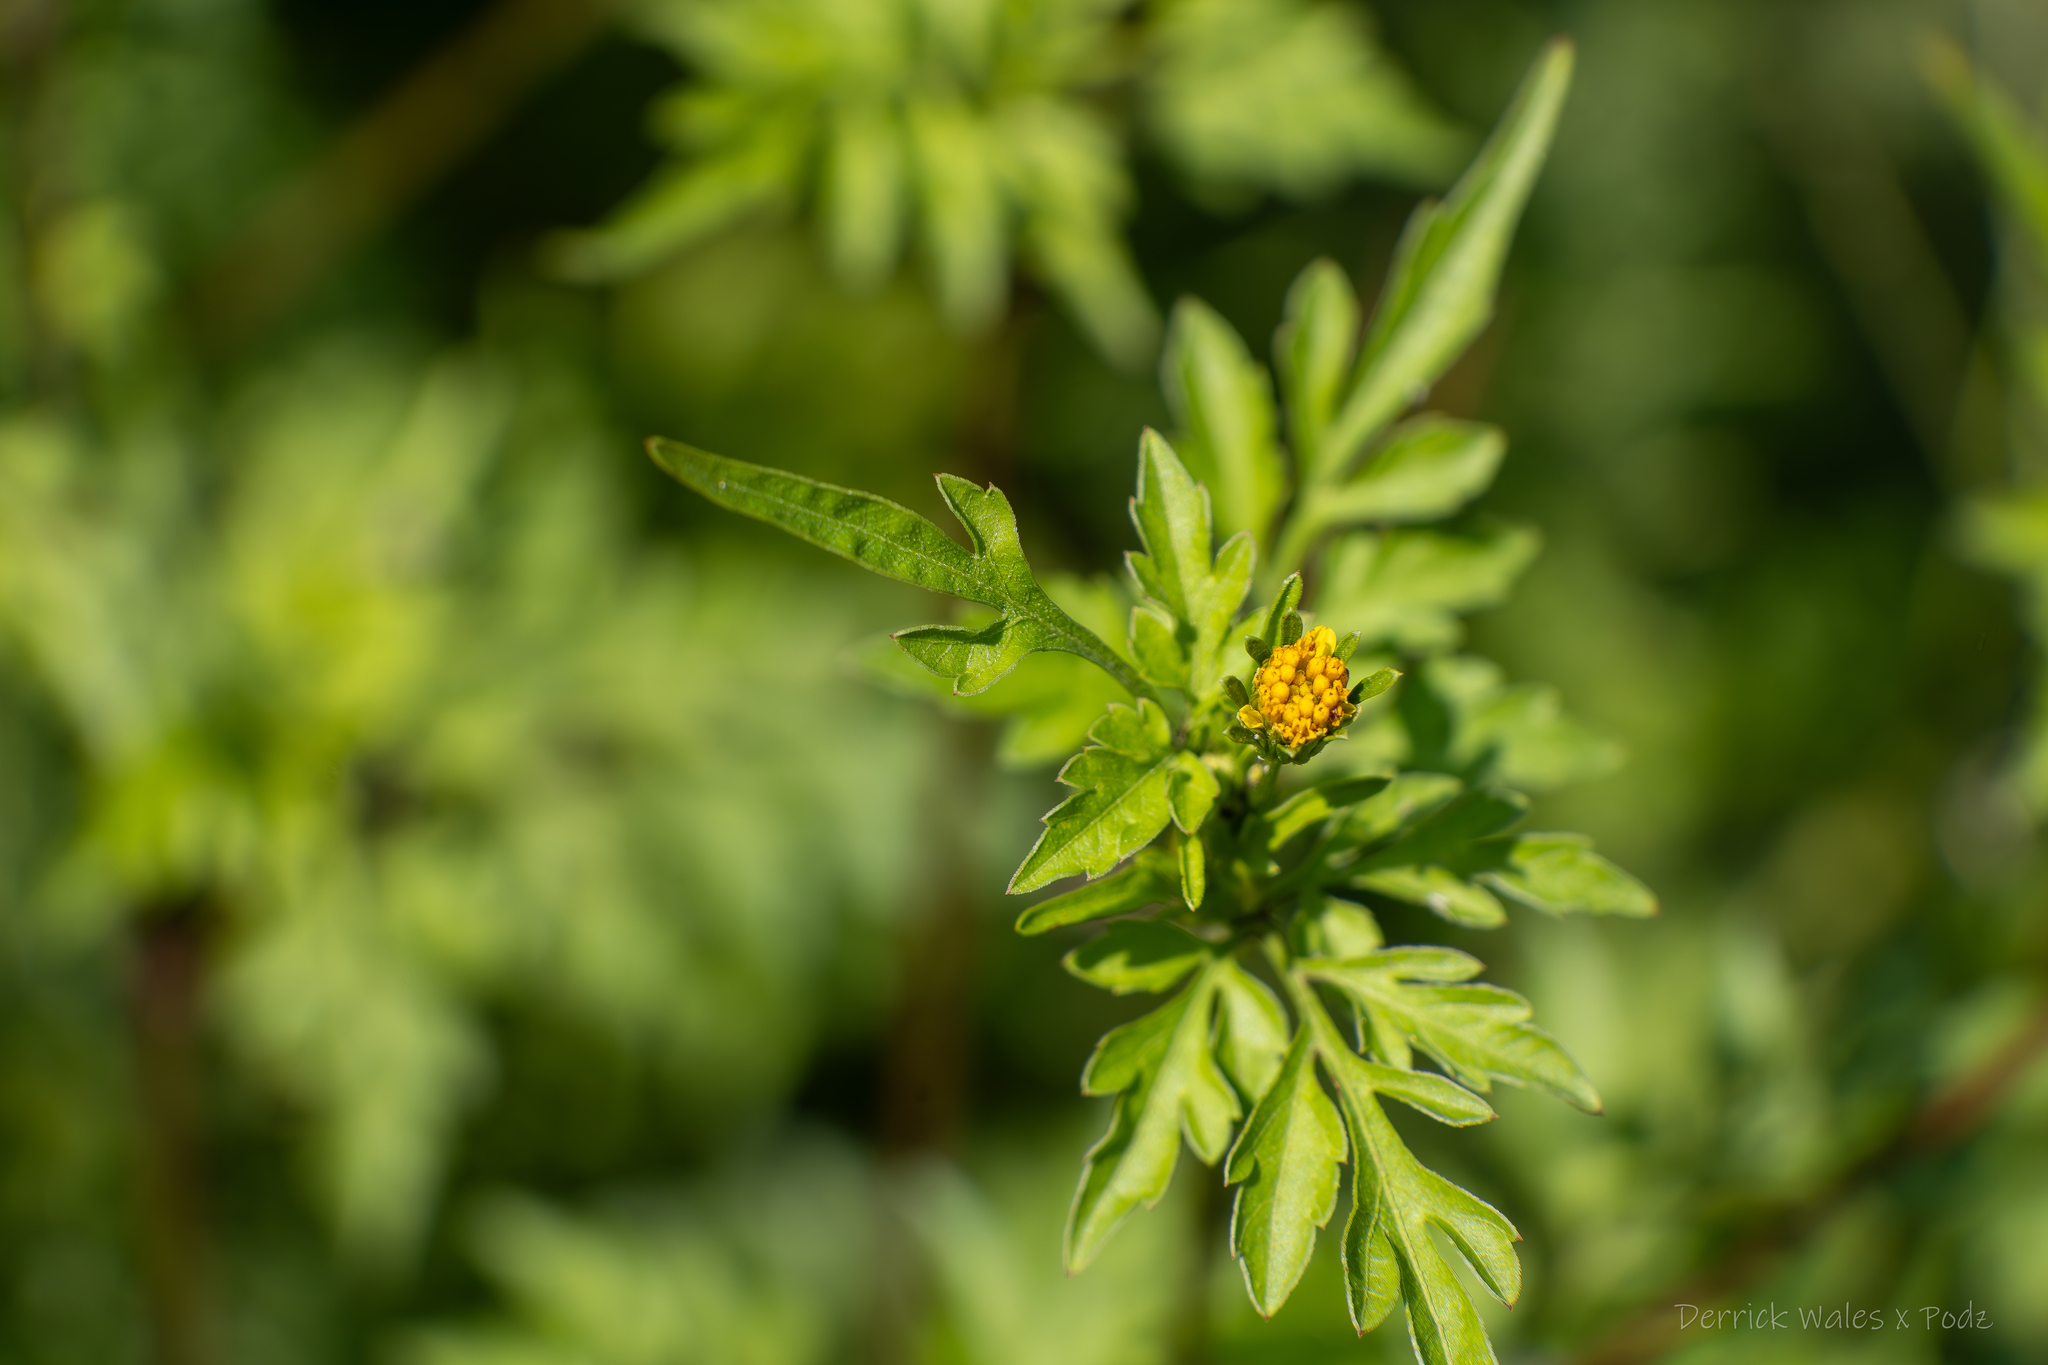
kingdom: Plantae
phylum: Tracheophyta
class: Magnoliopsida
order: Asterales
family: Asteraceae
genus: Bidens
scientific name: Bidens bipinnata
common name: Spanish-needles
